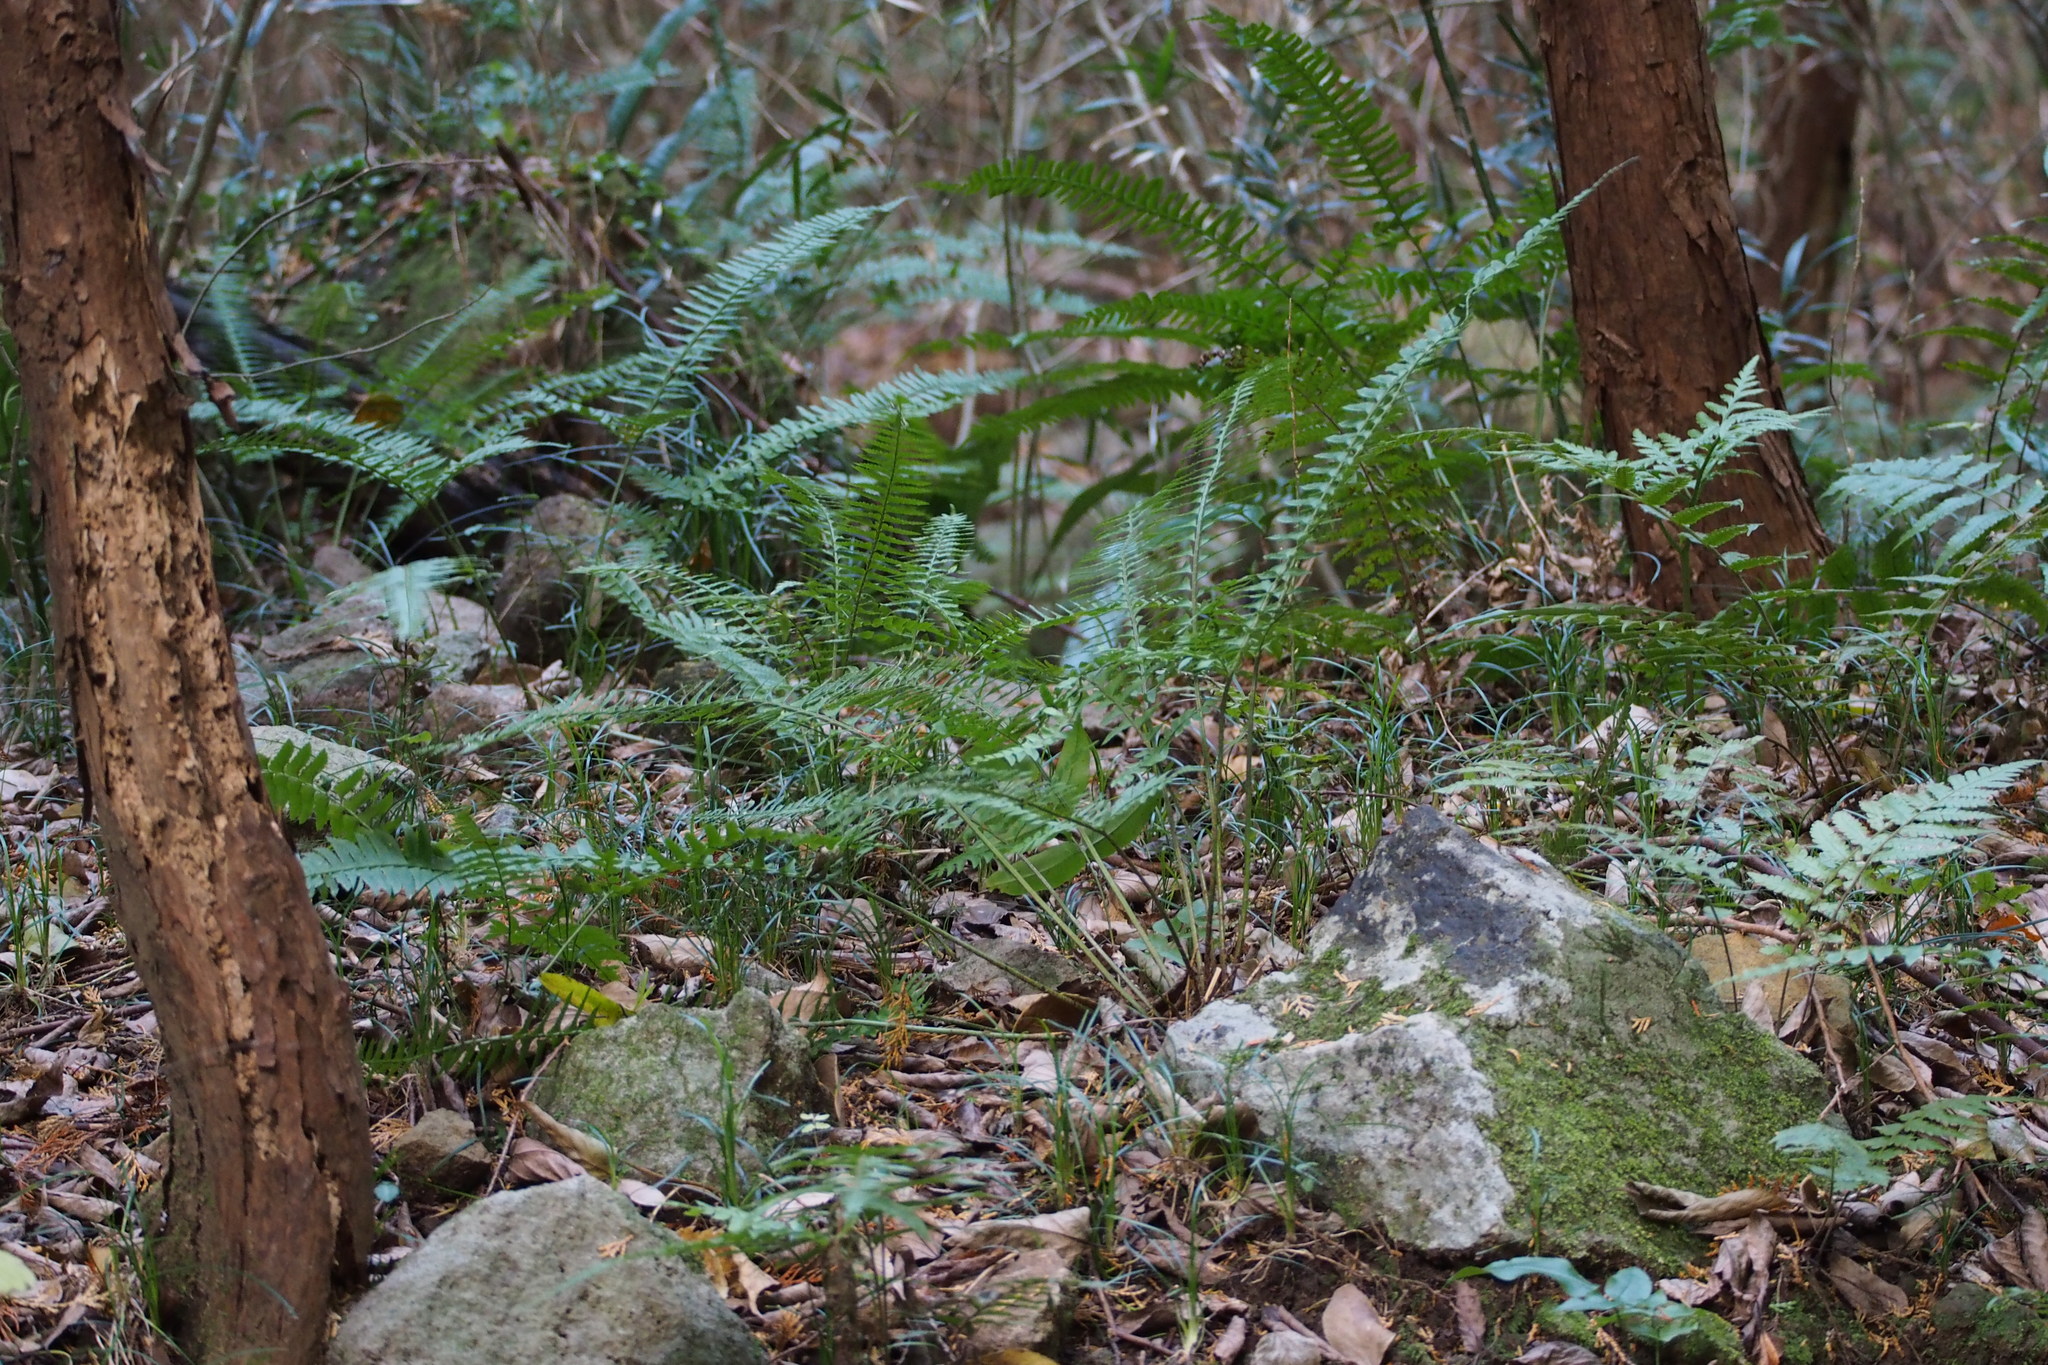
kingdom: Plantae
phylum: Tracheophyta
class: Polypodiopsida
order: Polypodiales
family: Dryopteridaceae
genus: Polystichum
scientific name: Polystichum tripteron
